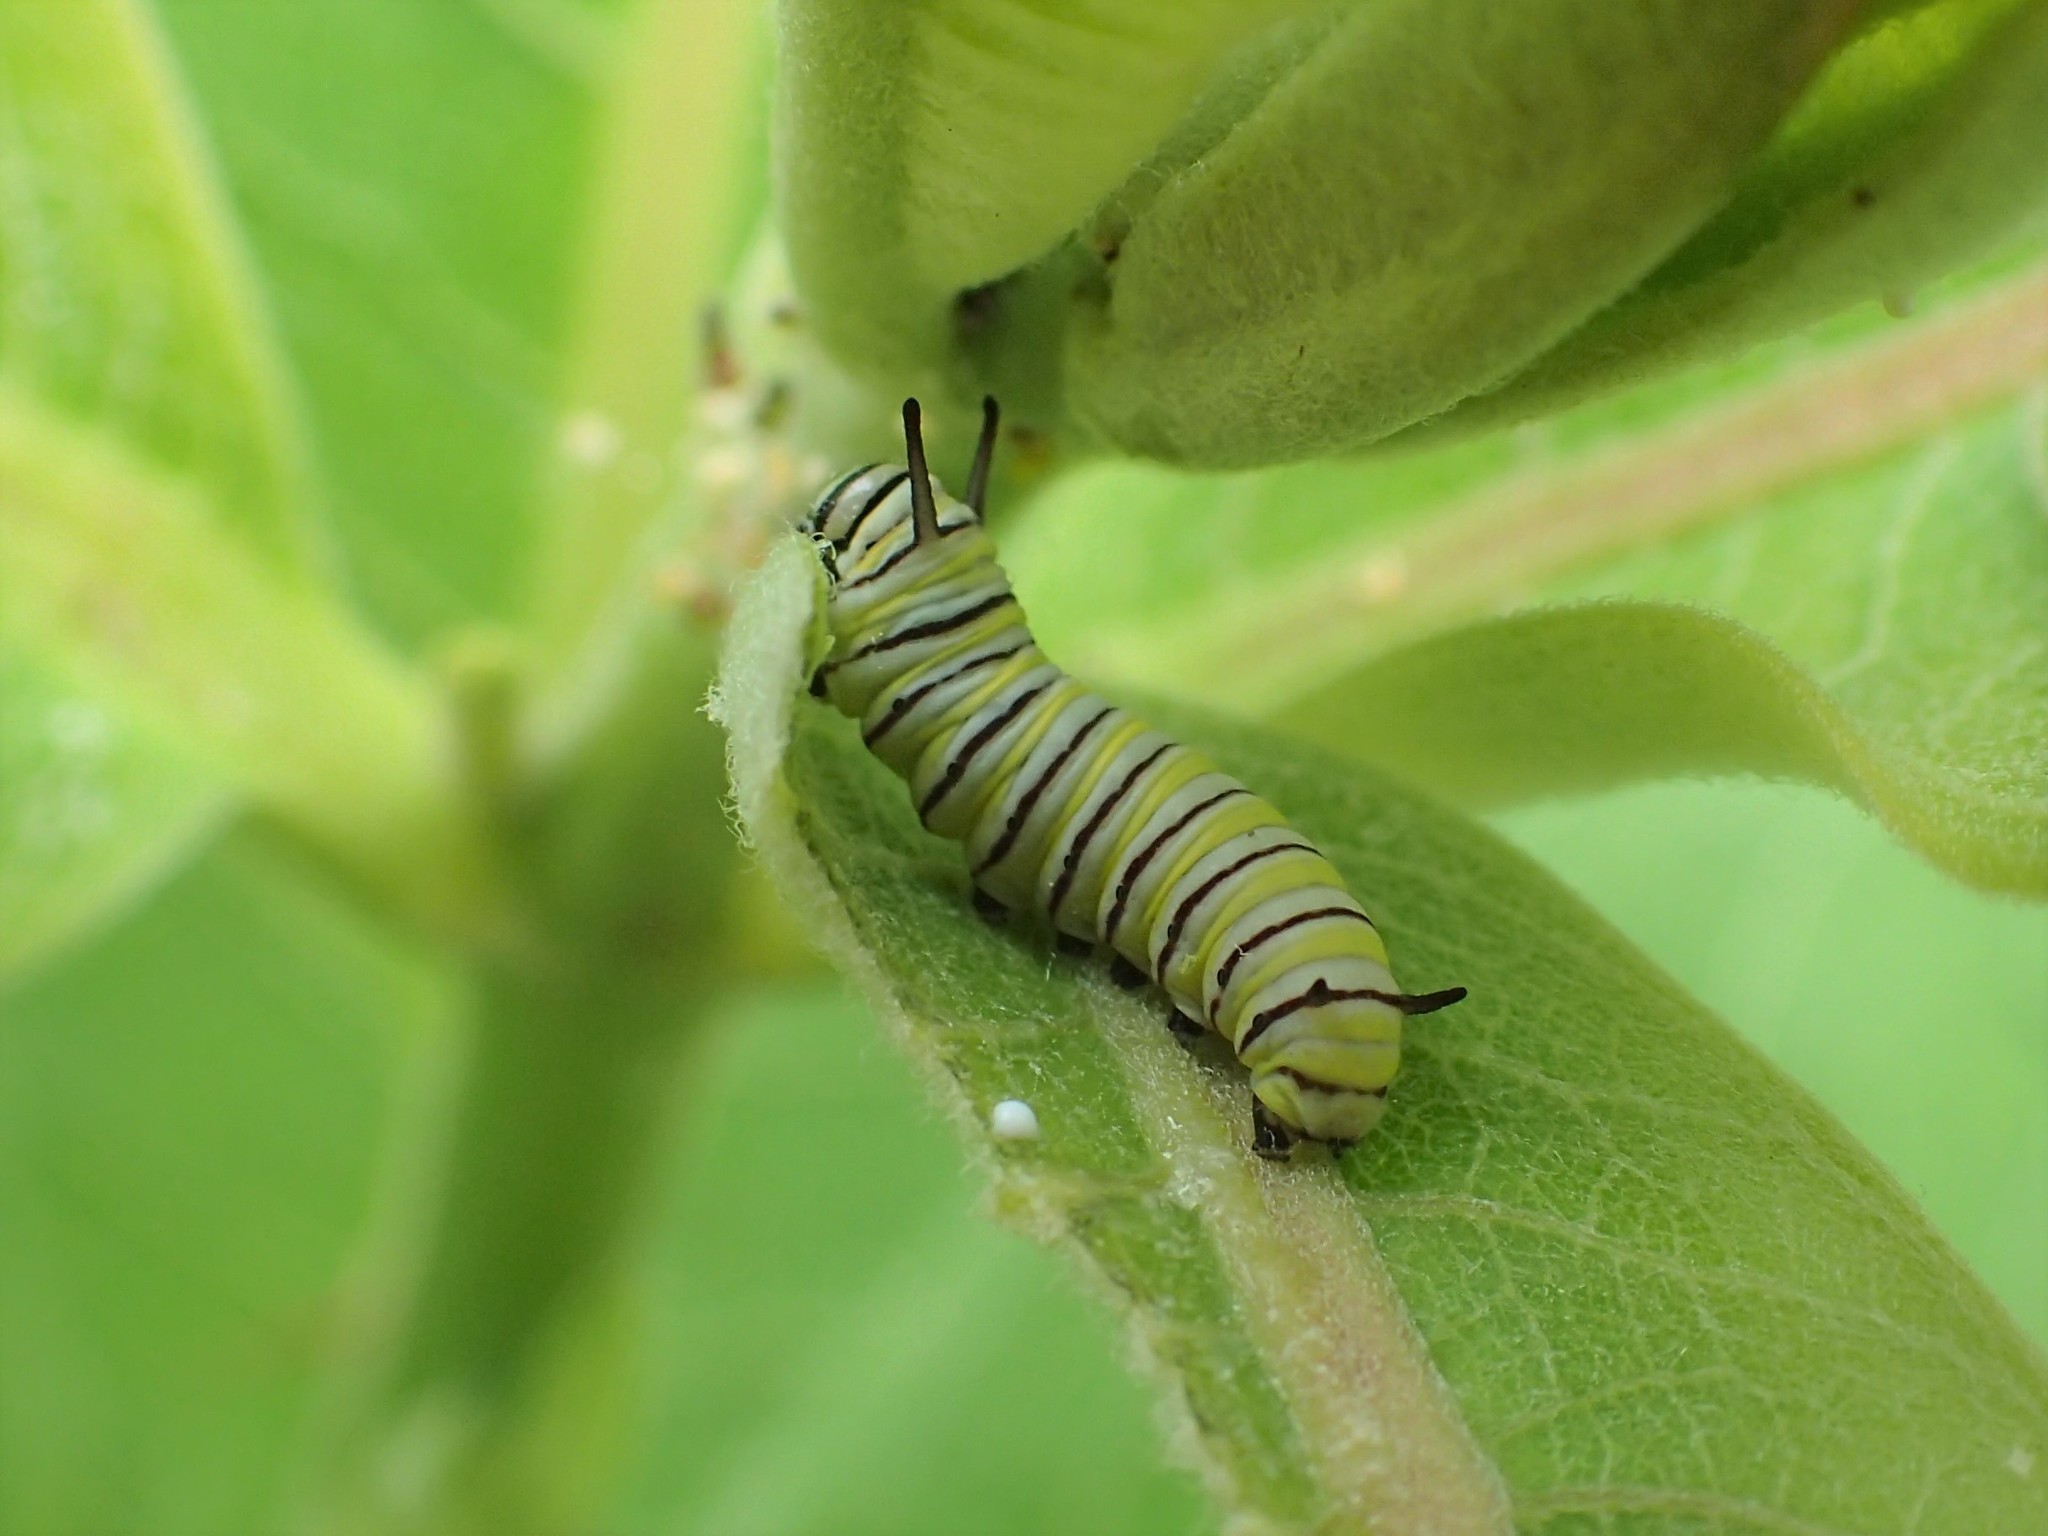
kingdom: Animalia
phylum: Arthropoda
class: Insecta
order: Lepidoptera
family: Nymphalidae
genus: Danaus
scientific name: Danaus plexippus
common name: Monarch
